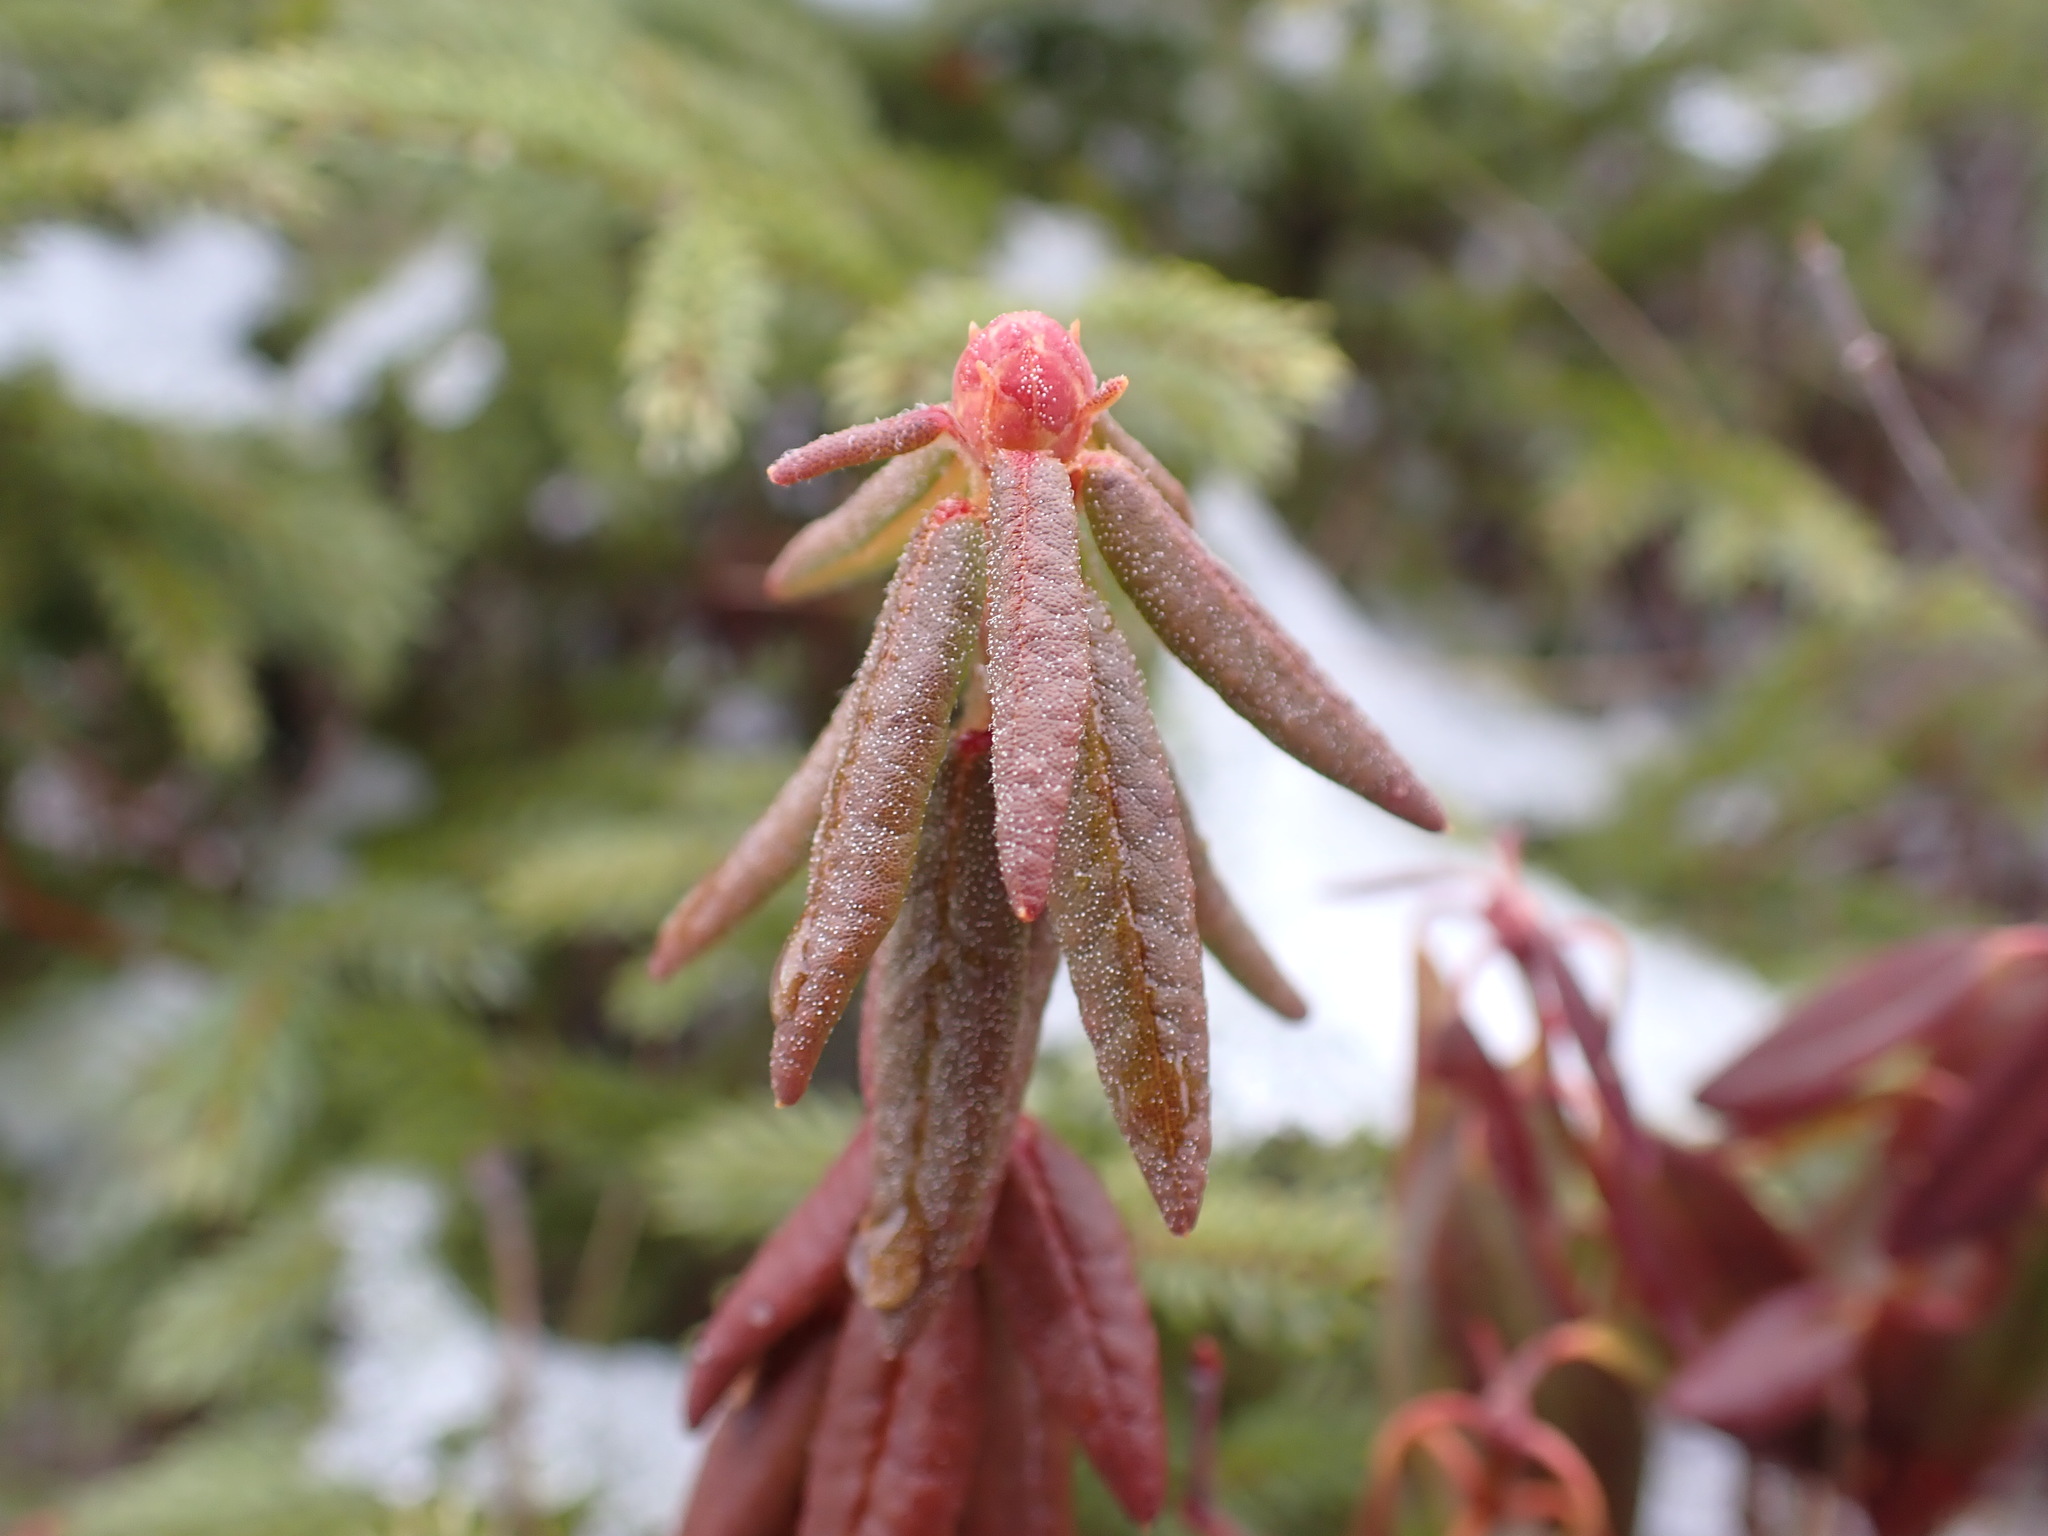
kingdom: Plantae
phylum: Tracheophyta
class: Magnoliopsida
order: Ericales
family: Ericaceae
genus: Rhododendron
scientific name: Rhododendron groenlandicum
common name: Bog labrador tea
